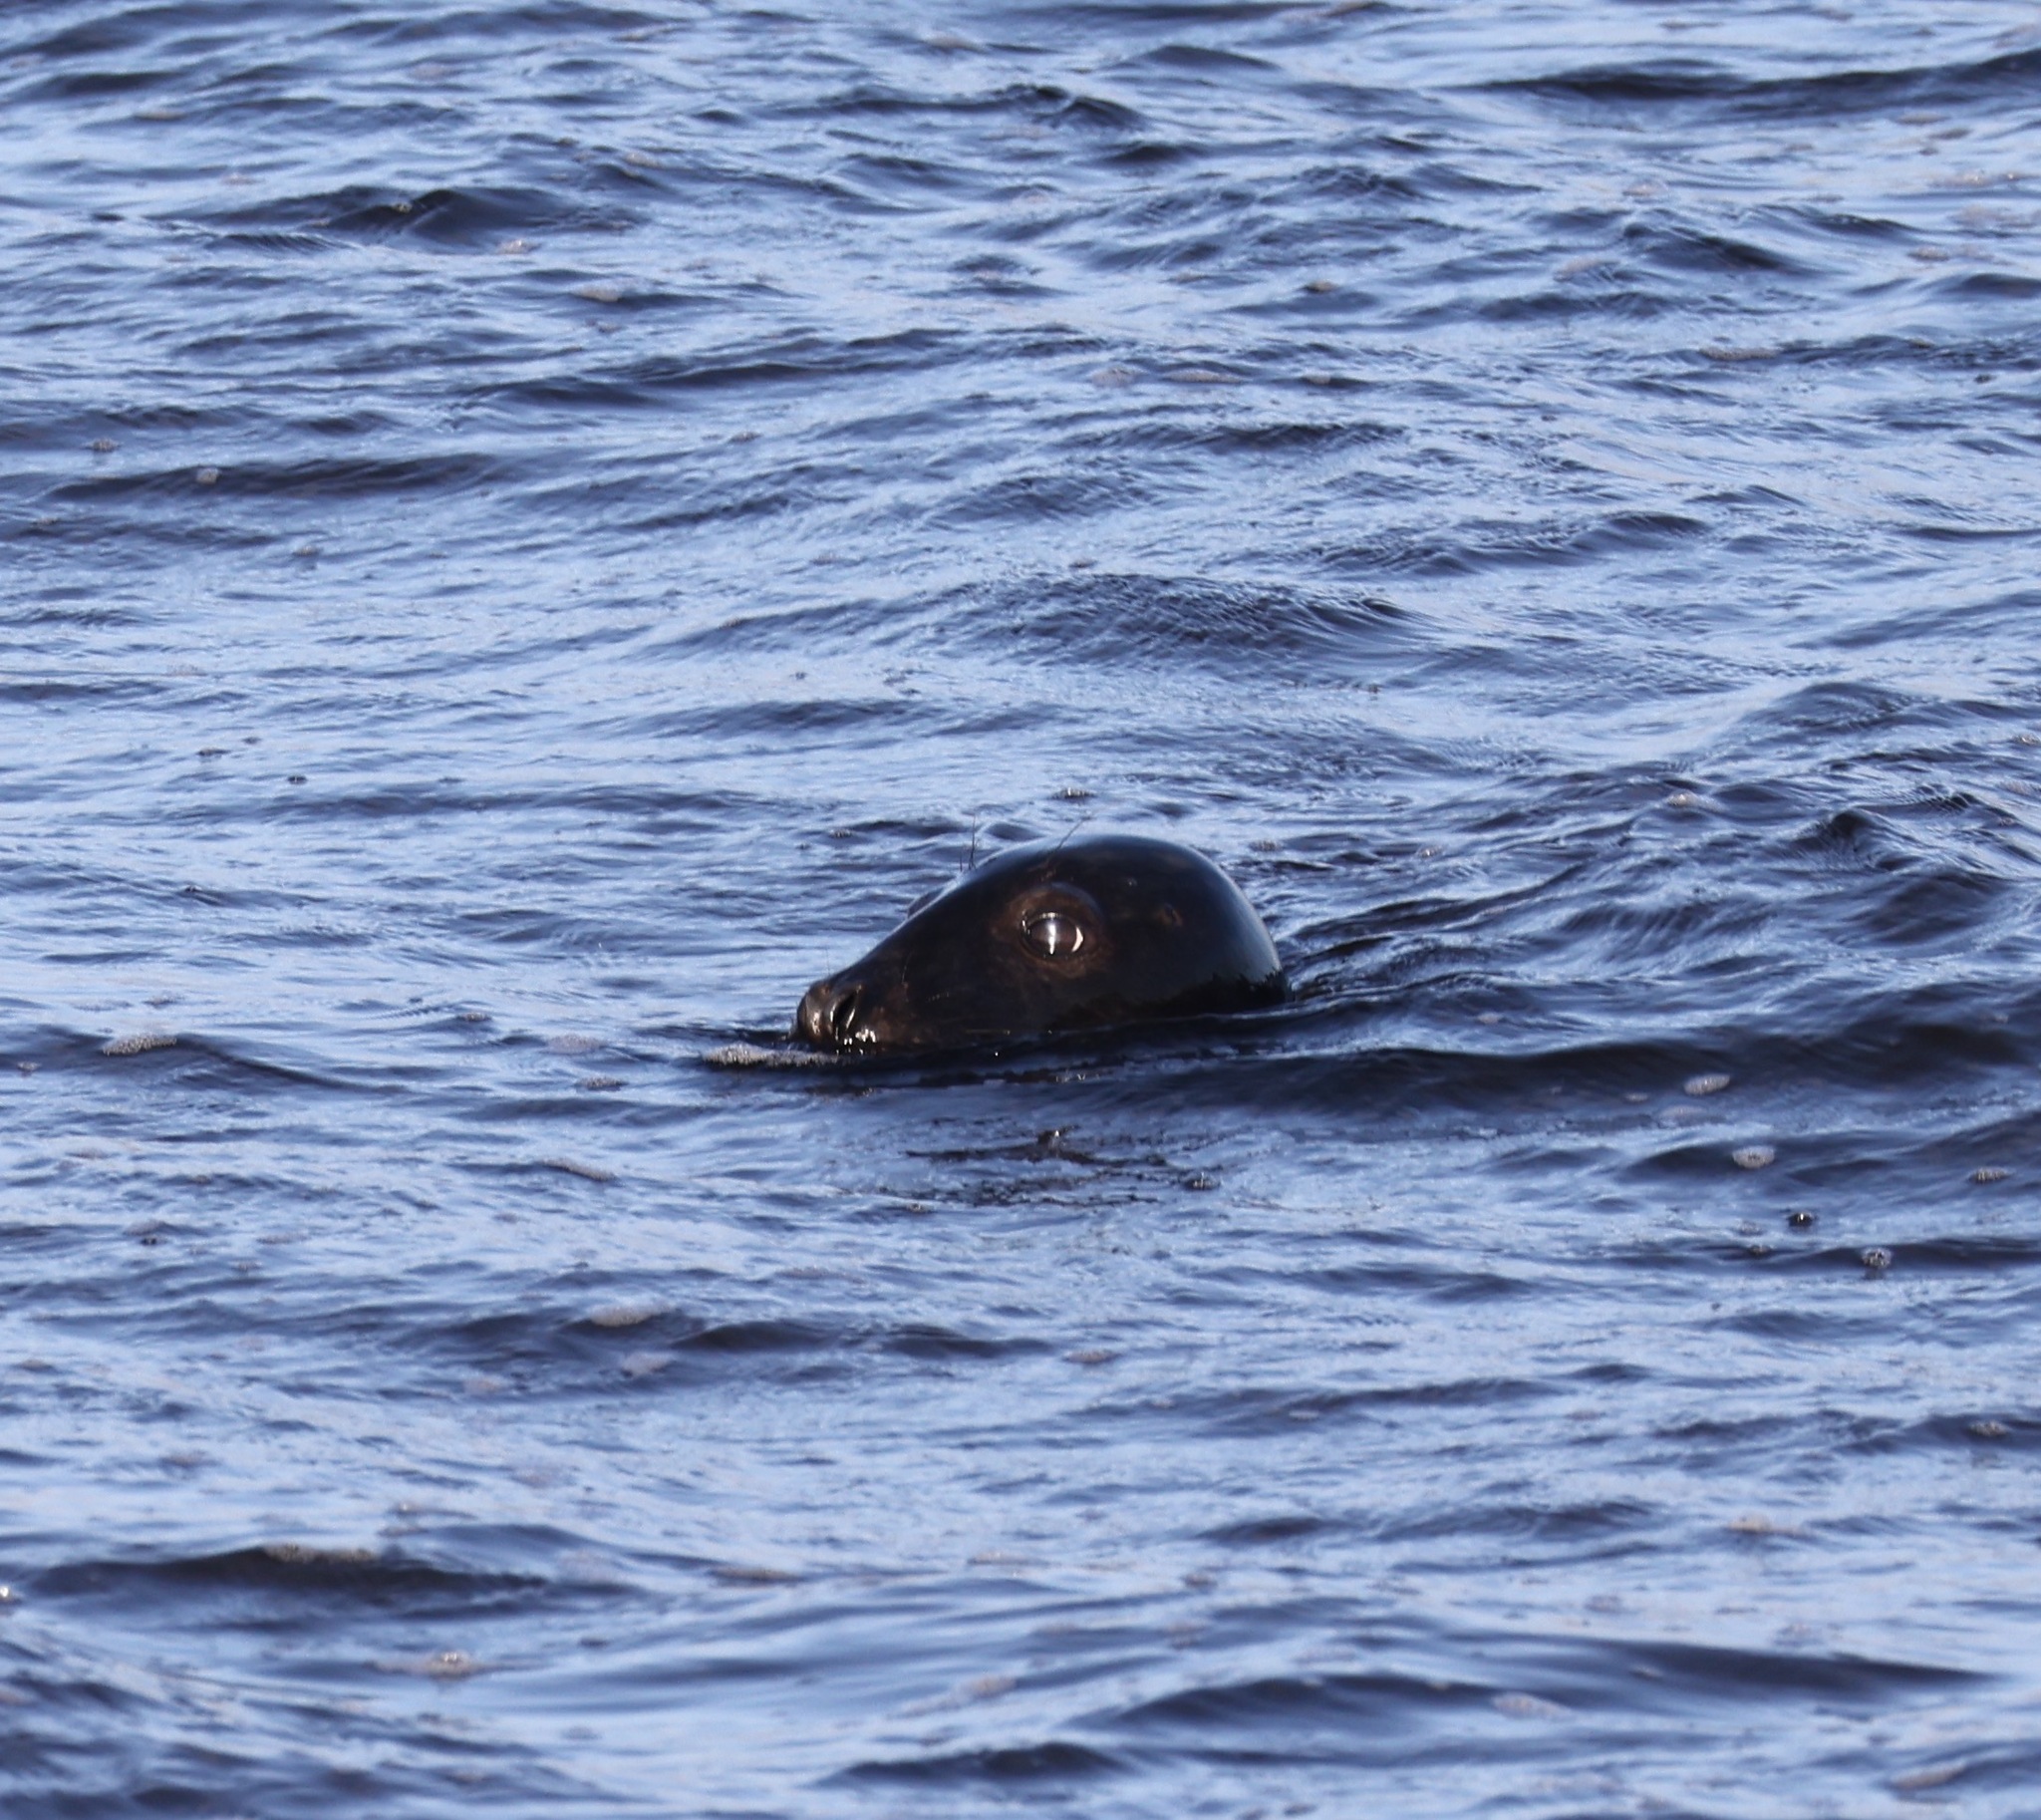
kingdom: Animalia
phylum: Chordata
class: Mammalia
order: Carnivora
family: Phocidae
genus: Halichoerus
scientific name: Halichoerus grypus
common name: Grey seal
